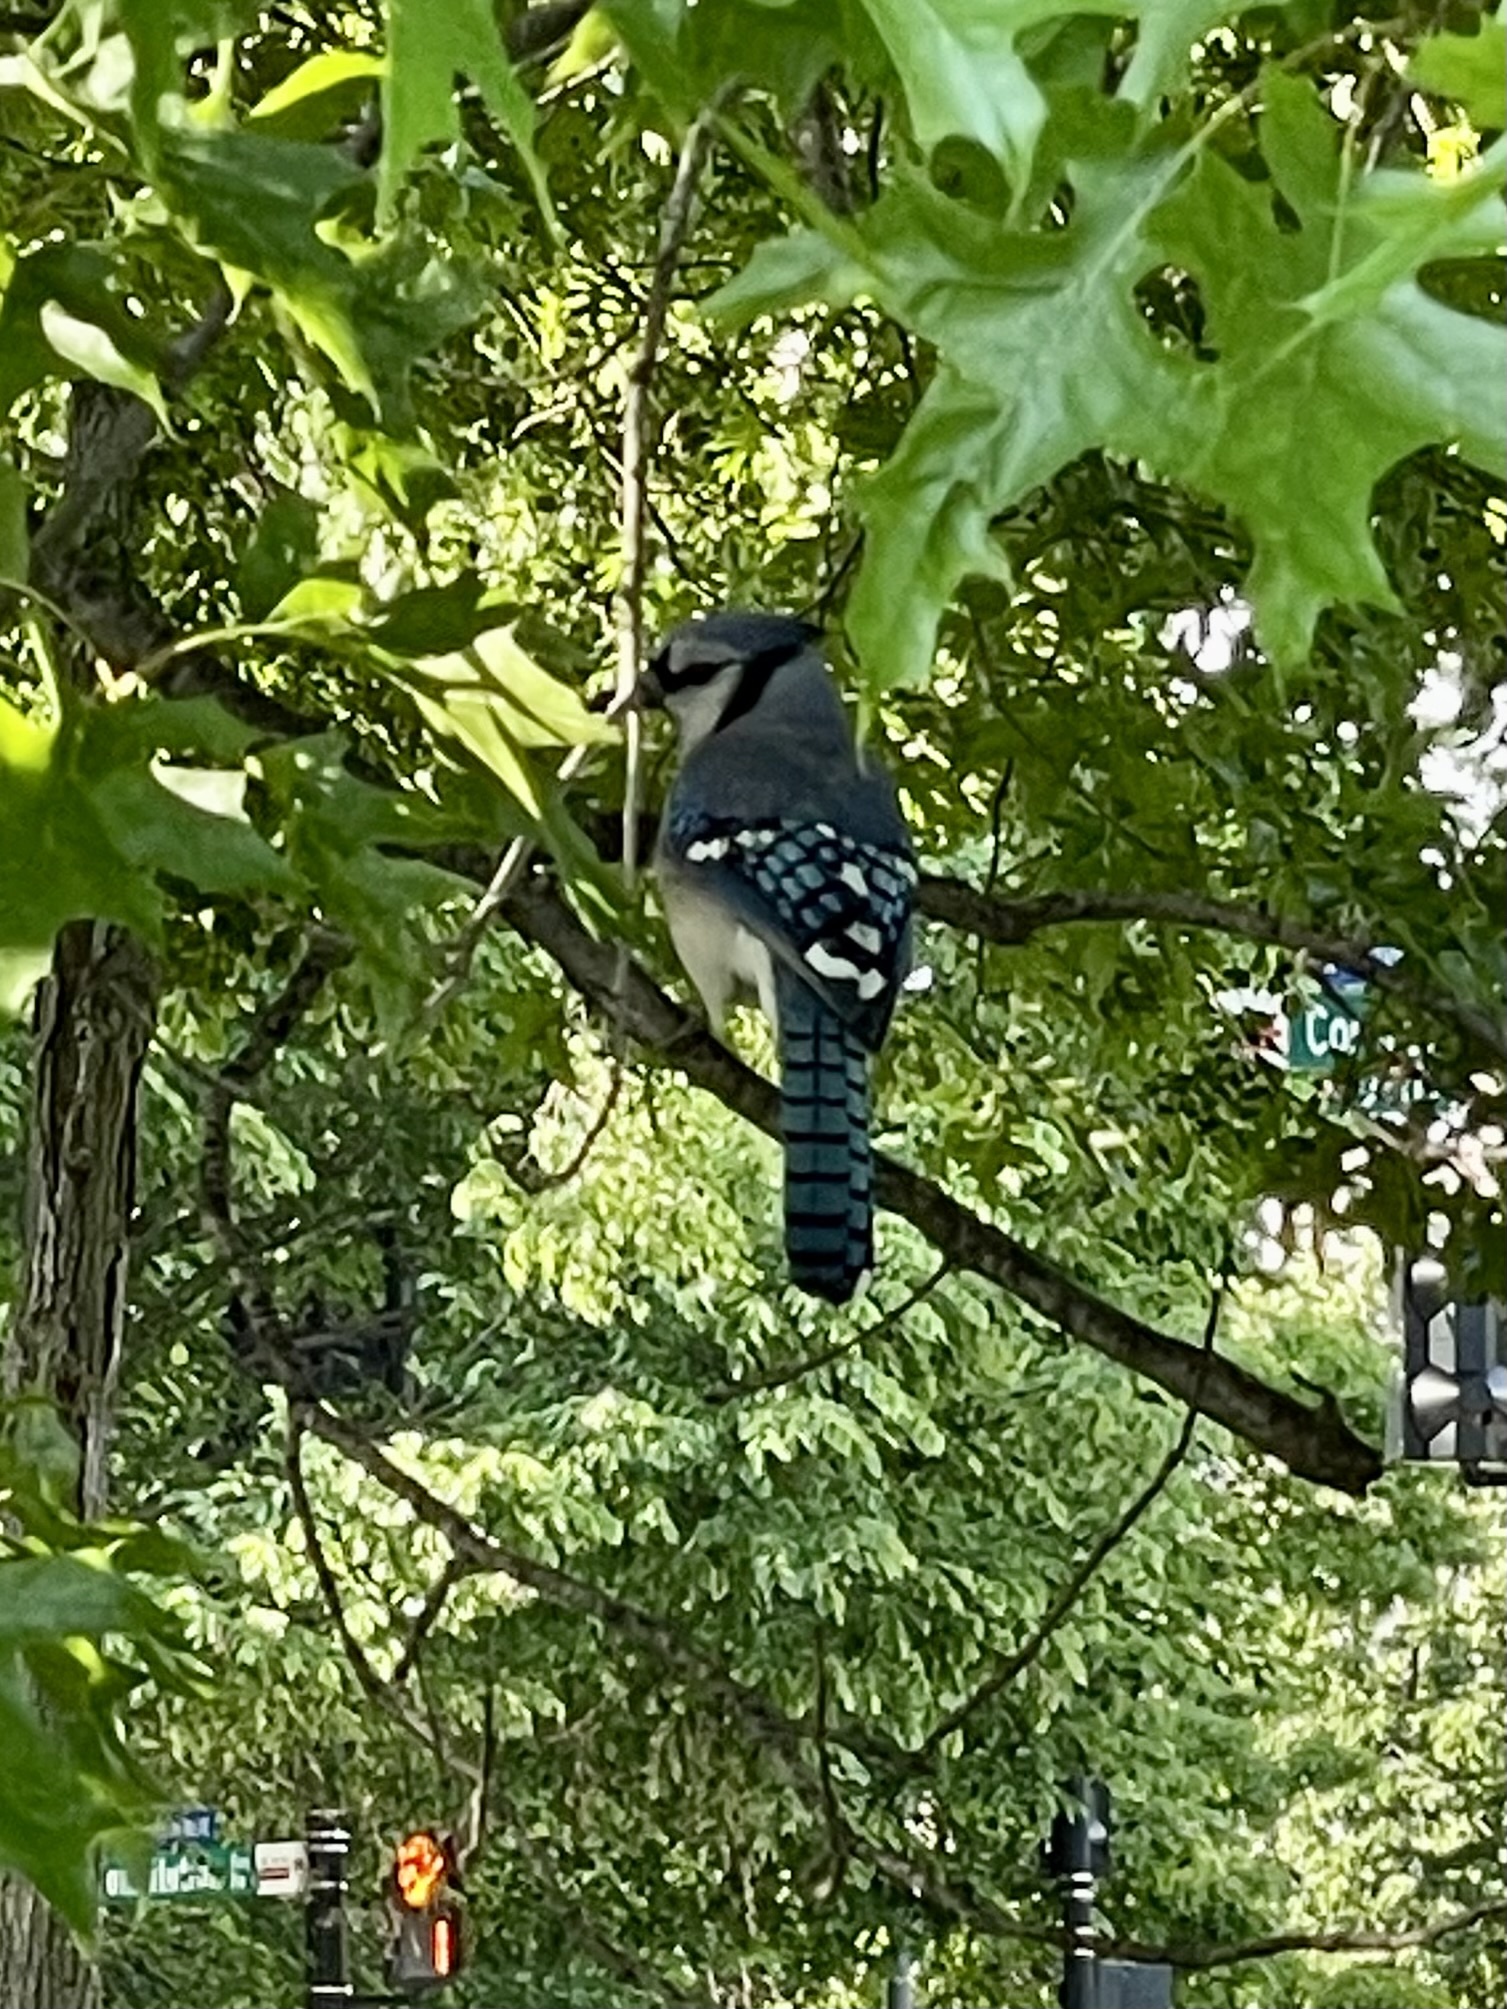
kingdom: Animalia
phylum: Chordata
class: Aves
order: Passeriformes
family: Corvidae
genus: Cyanocitta
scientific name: Cyanocitta cristata
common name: Blue jay
